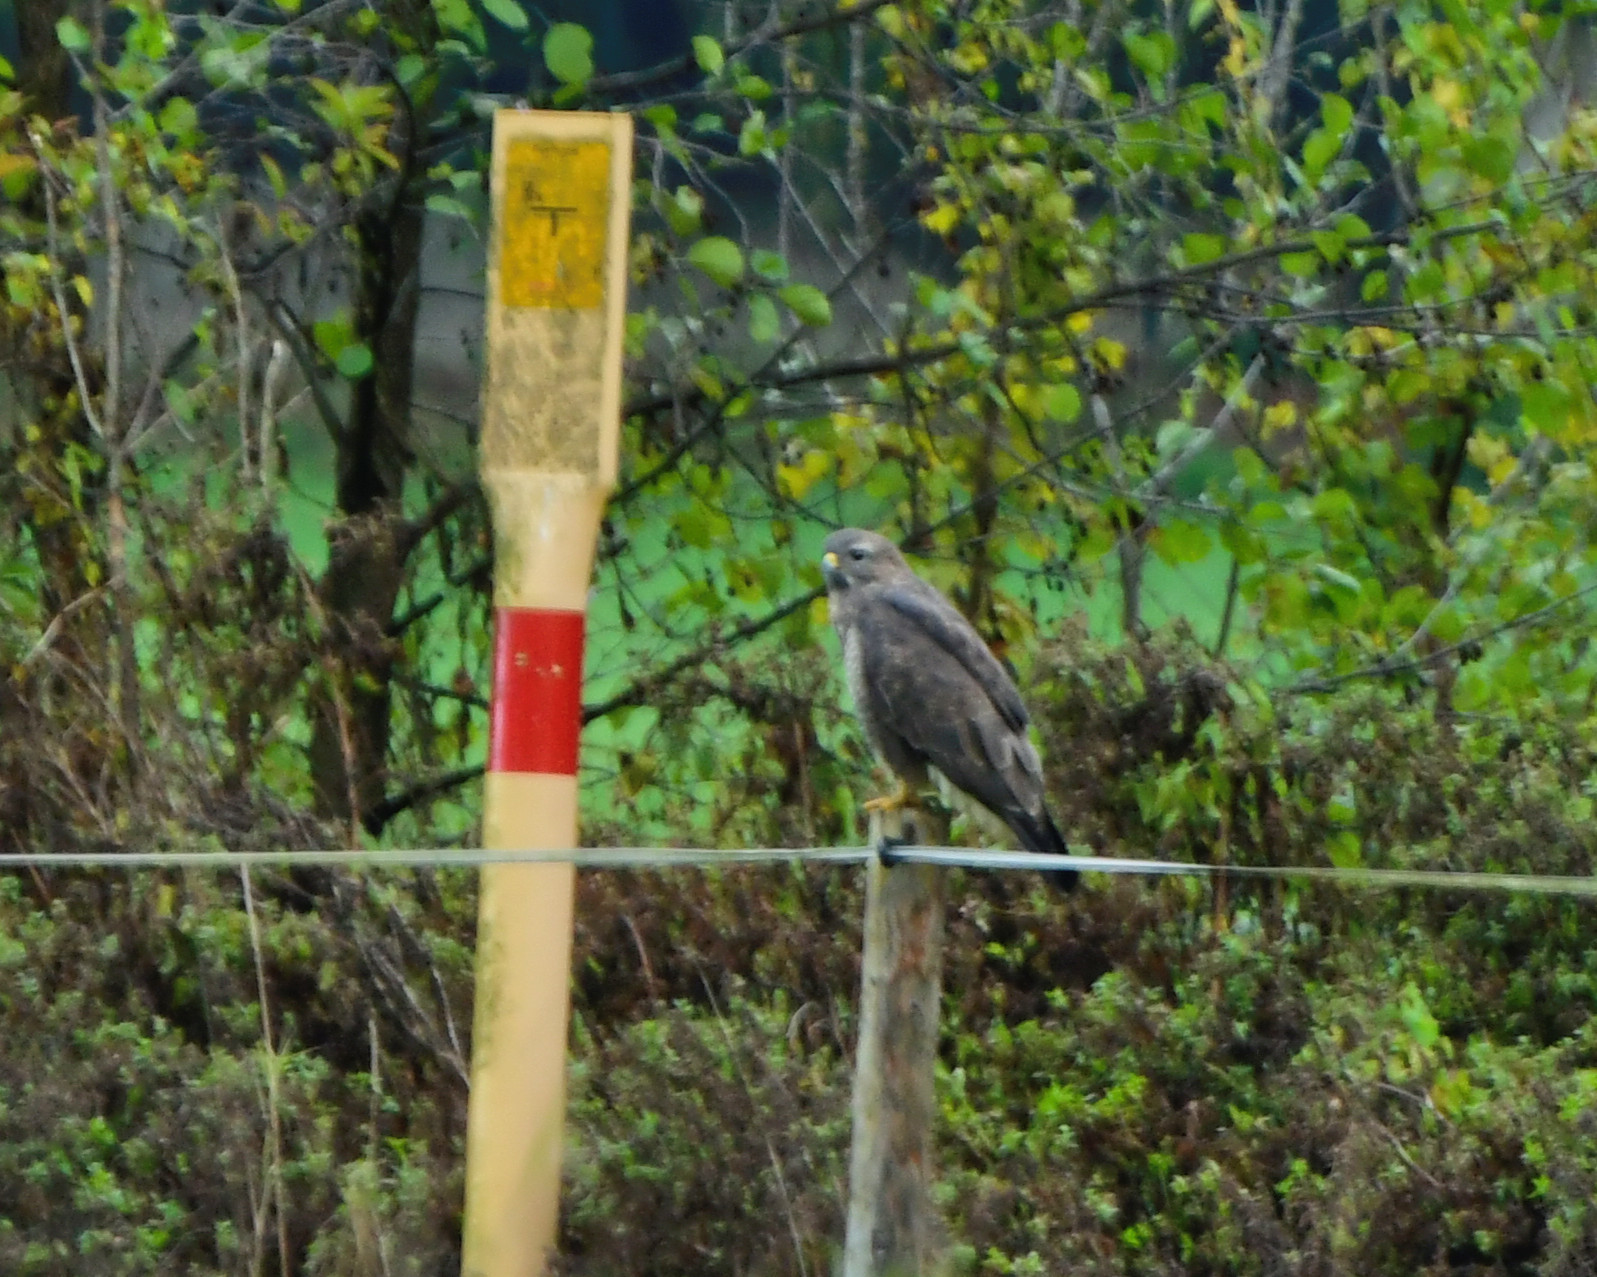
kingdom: Animalia
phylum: Chordata
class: Aves
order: Accipitriformes
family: Accipitridae
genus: Buteo
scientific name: Buteo buteo
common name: Common buzzard
